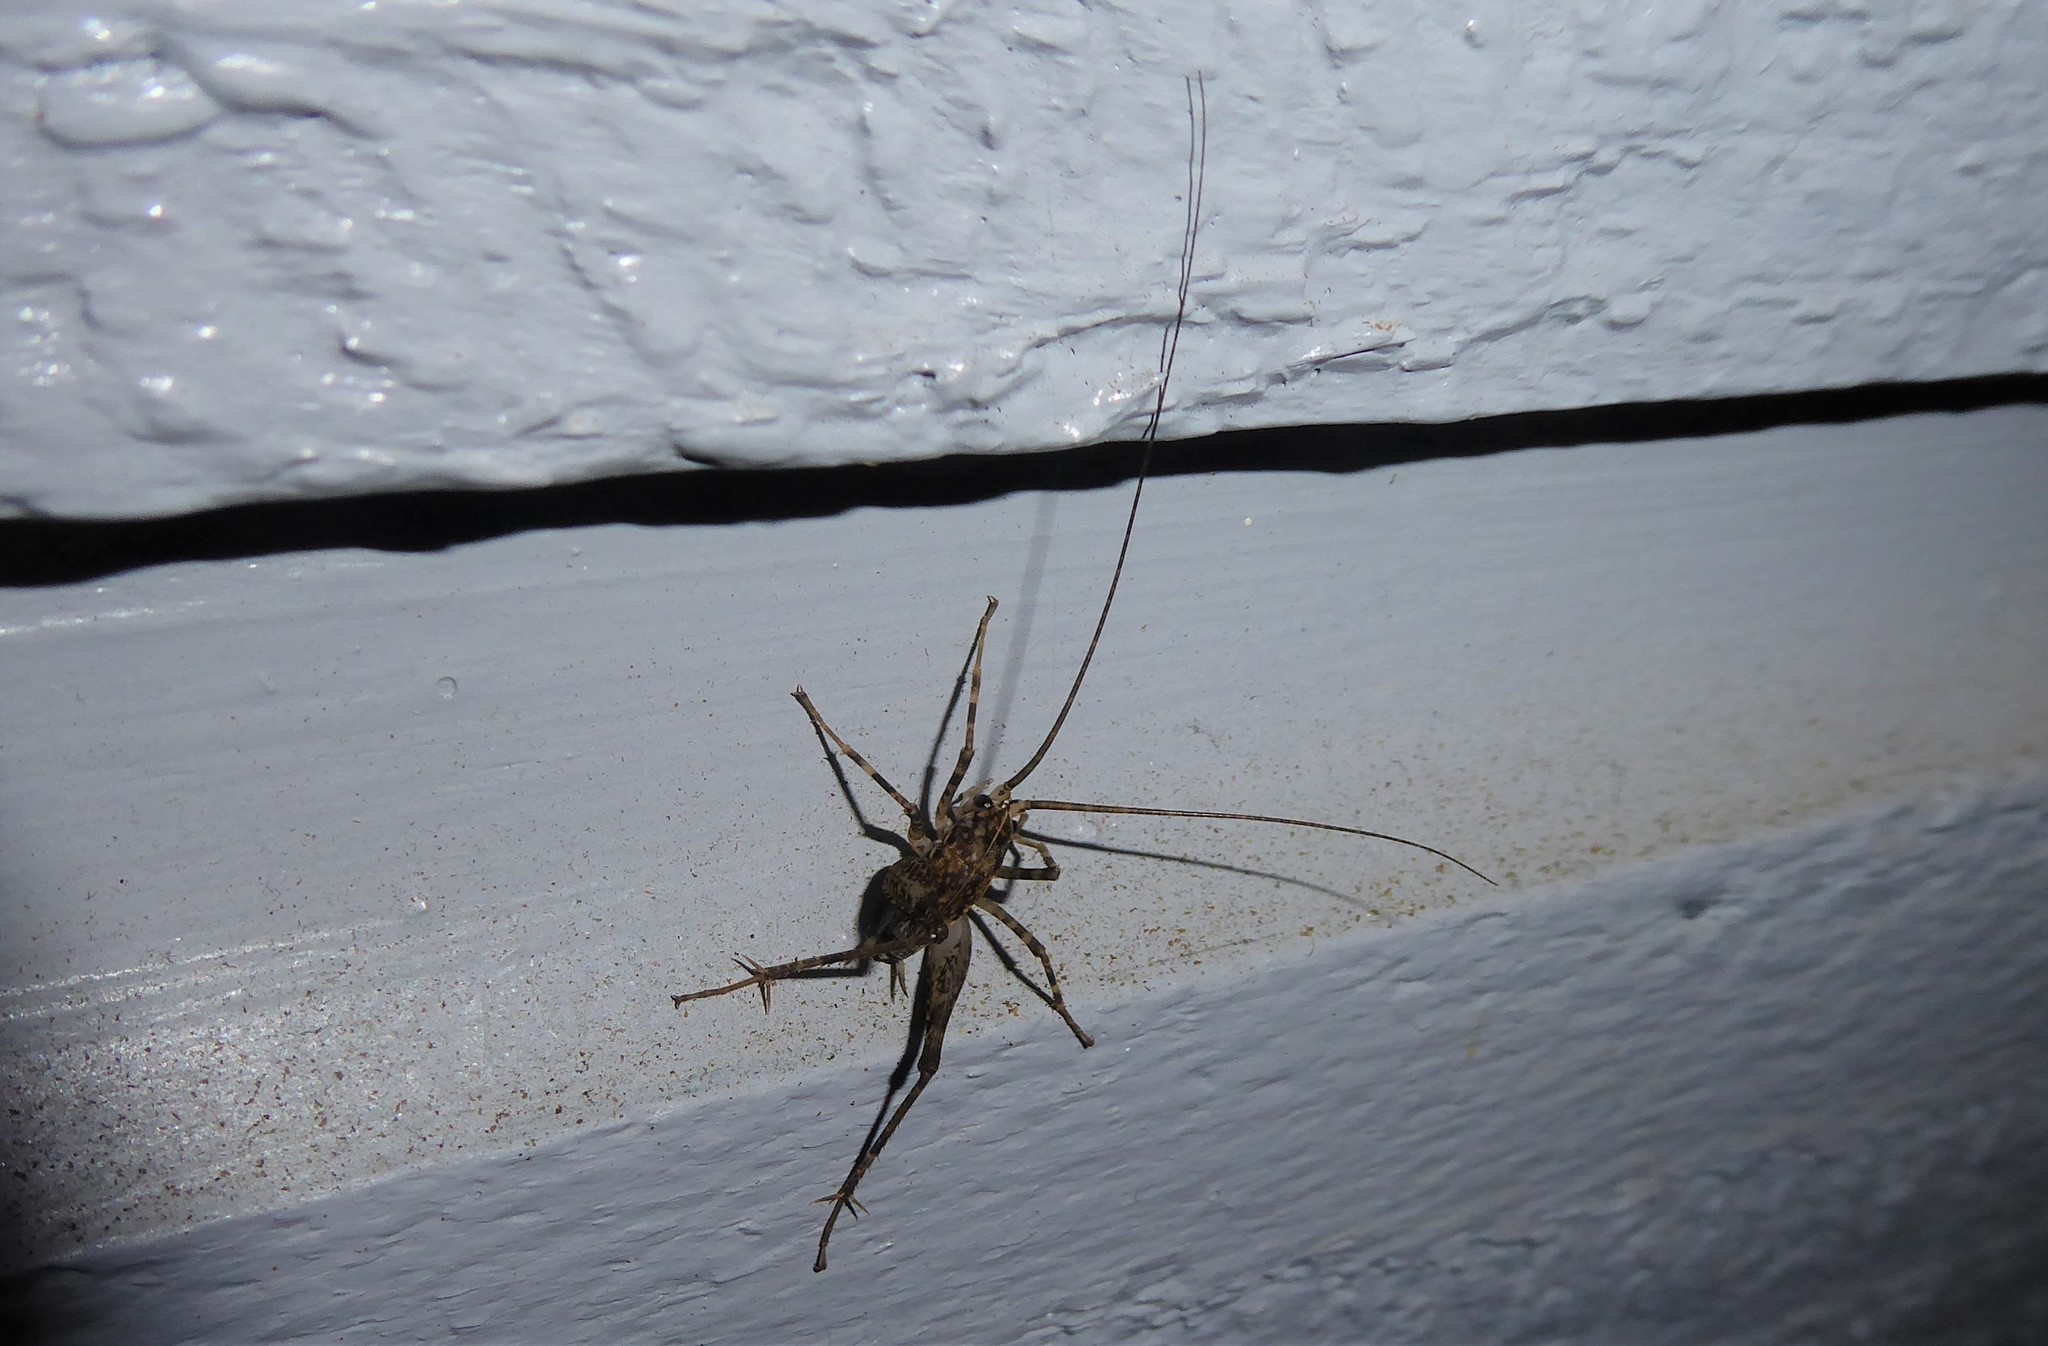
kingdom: Animalia
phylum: Arthropoda
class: Insecta
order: Orthoptera
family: Rhaphidophoridae
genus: Pleioplectron
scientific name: Pleioplectron simplex
